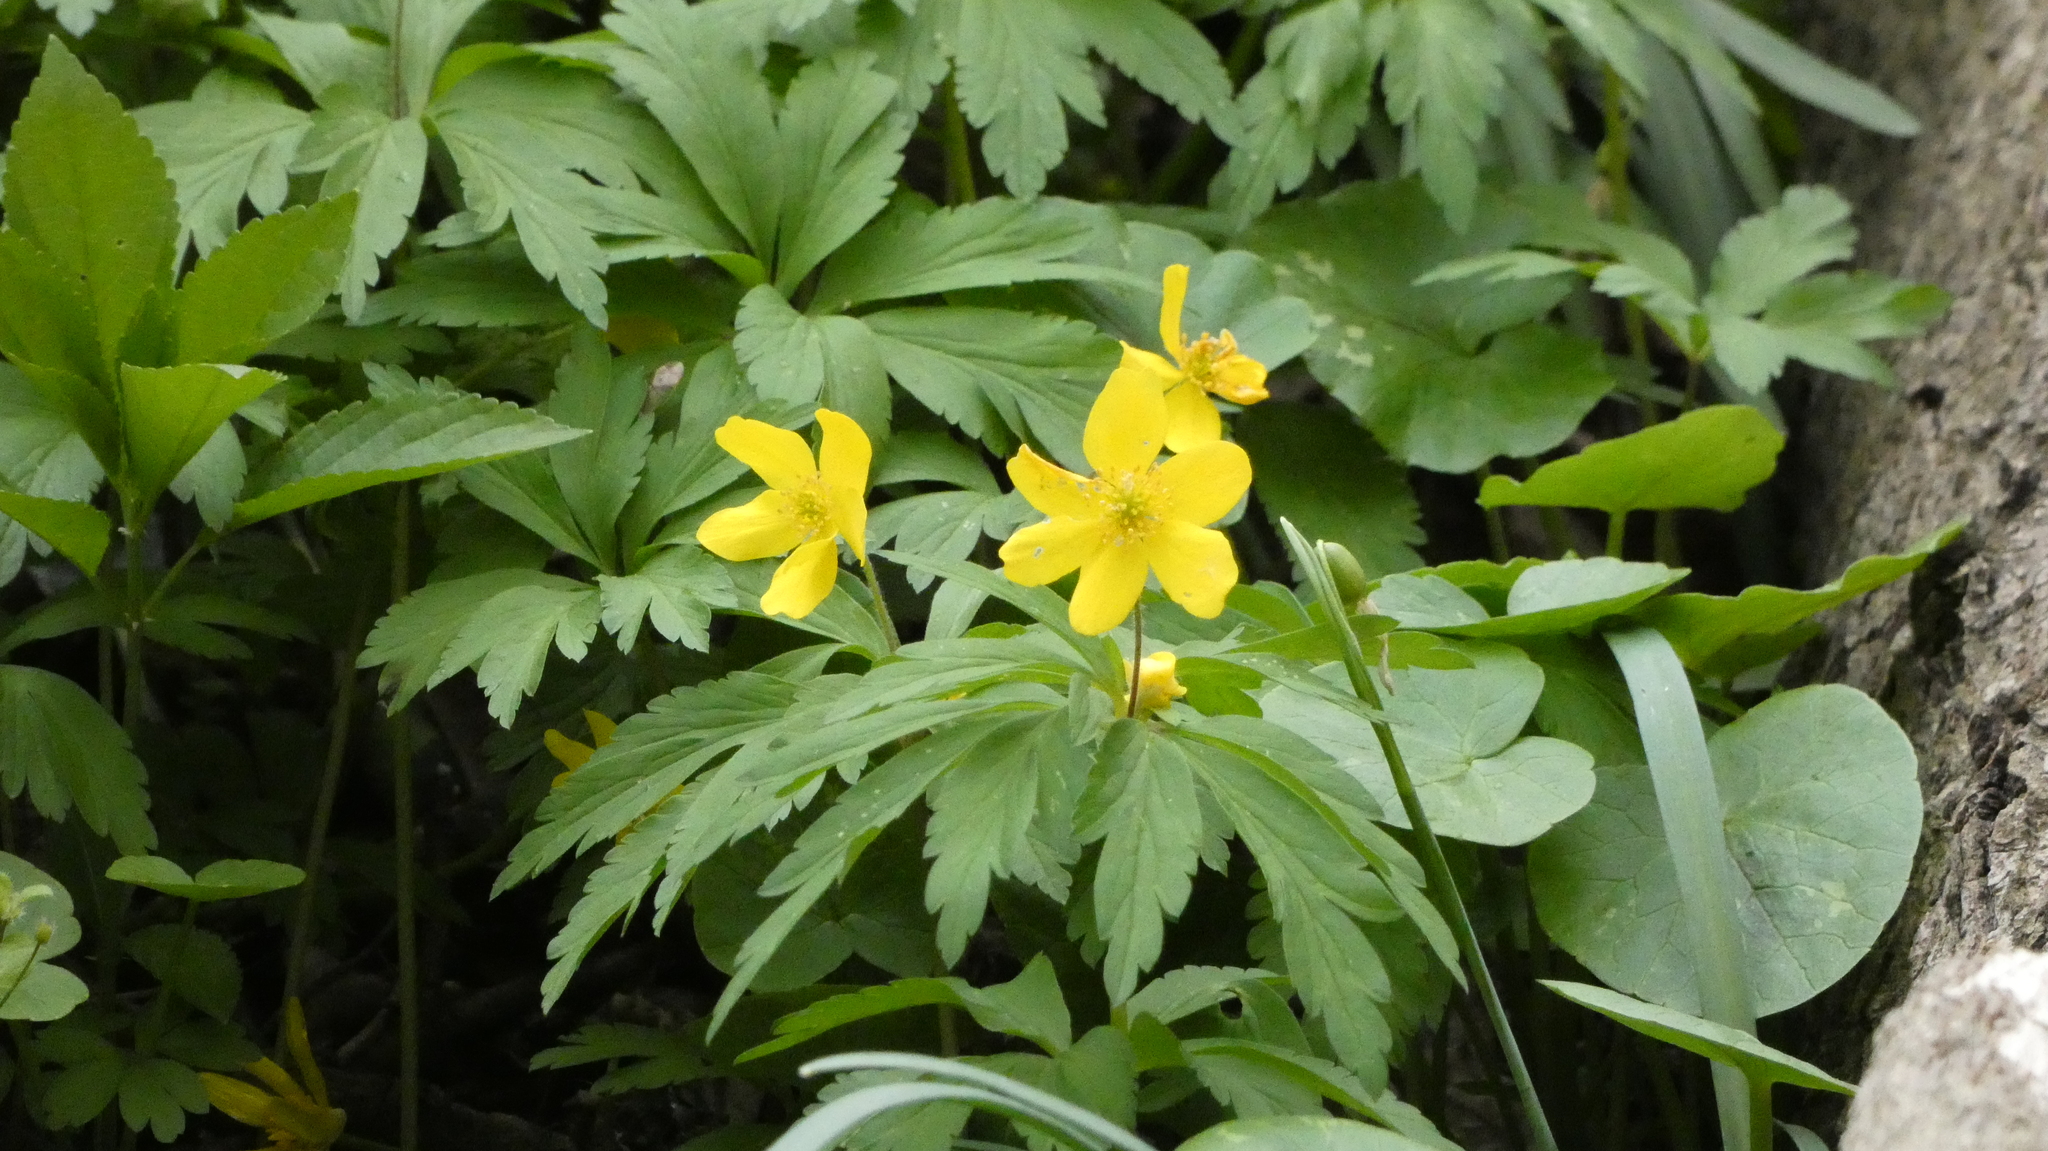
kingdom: Plantae
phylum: Tracheophyta
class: Magnoliopsida
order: Ranunculales
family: Ranunculaceae
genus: Anemone
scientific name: Anemone ranunculoides
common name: Yellow anemone
